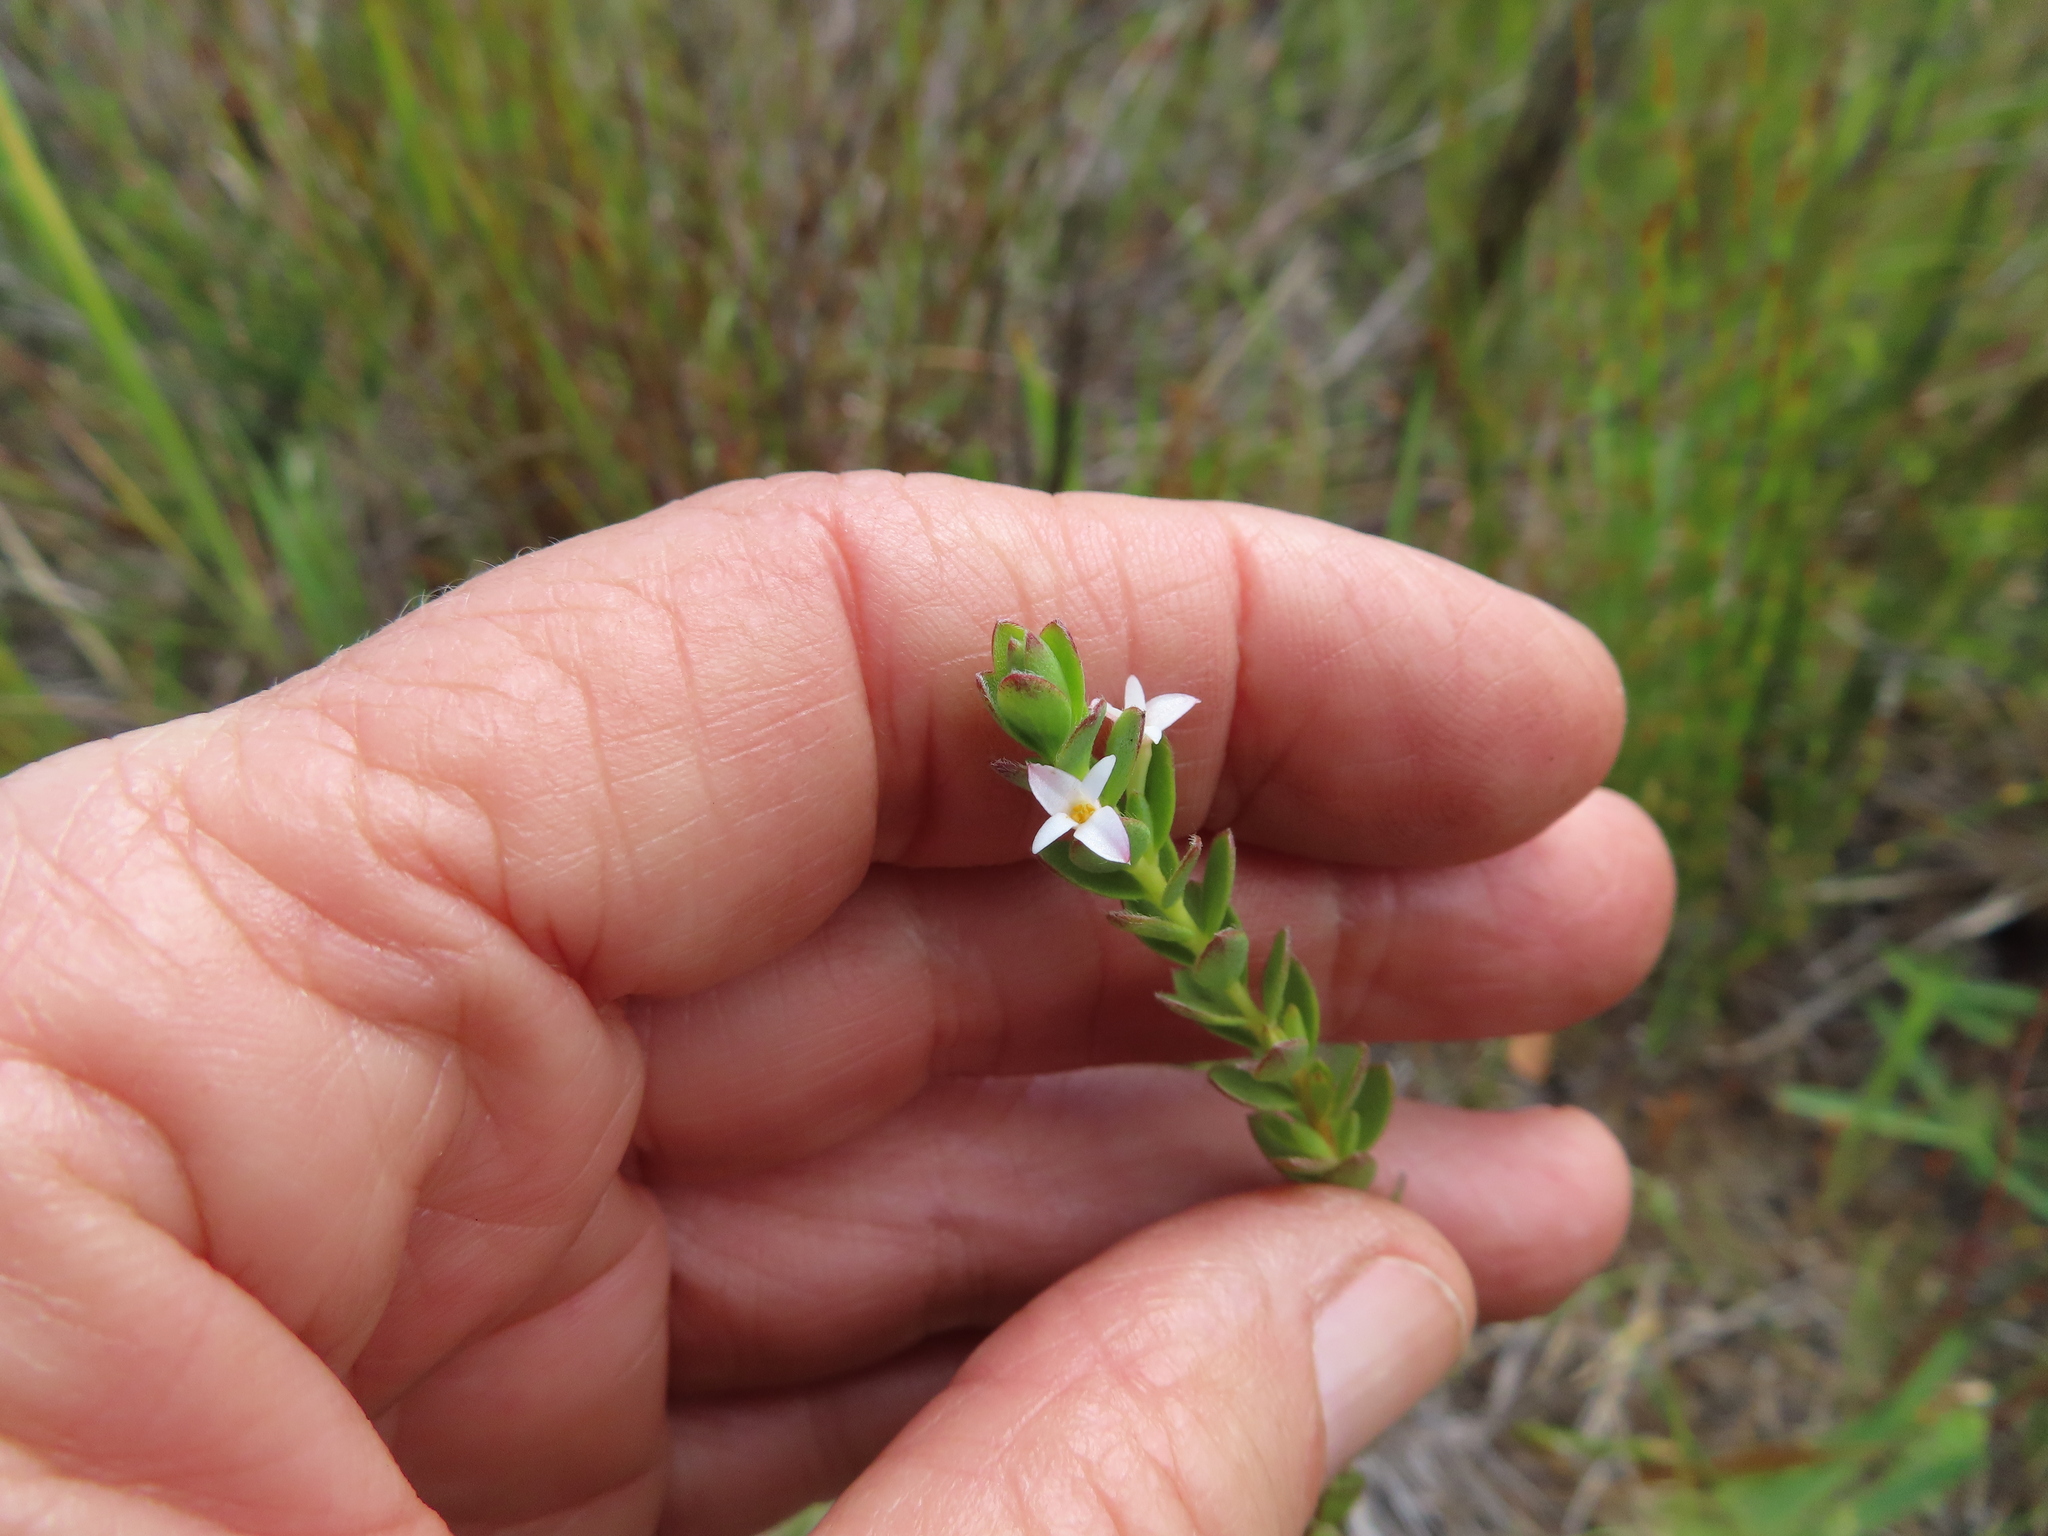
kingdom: Plantae
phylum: Tracheophyta
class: Magnoliopsida
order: Malvales
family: Thymelaeaceae
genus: Gnidia
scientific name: Gnidia spicata
